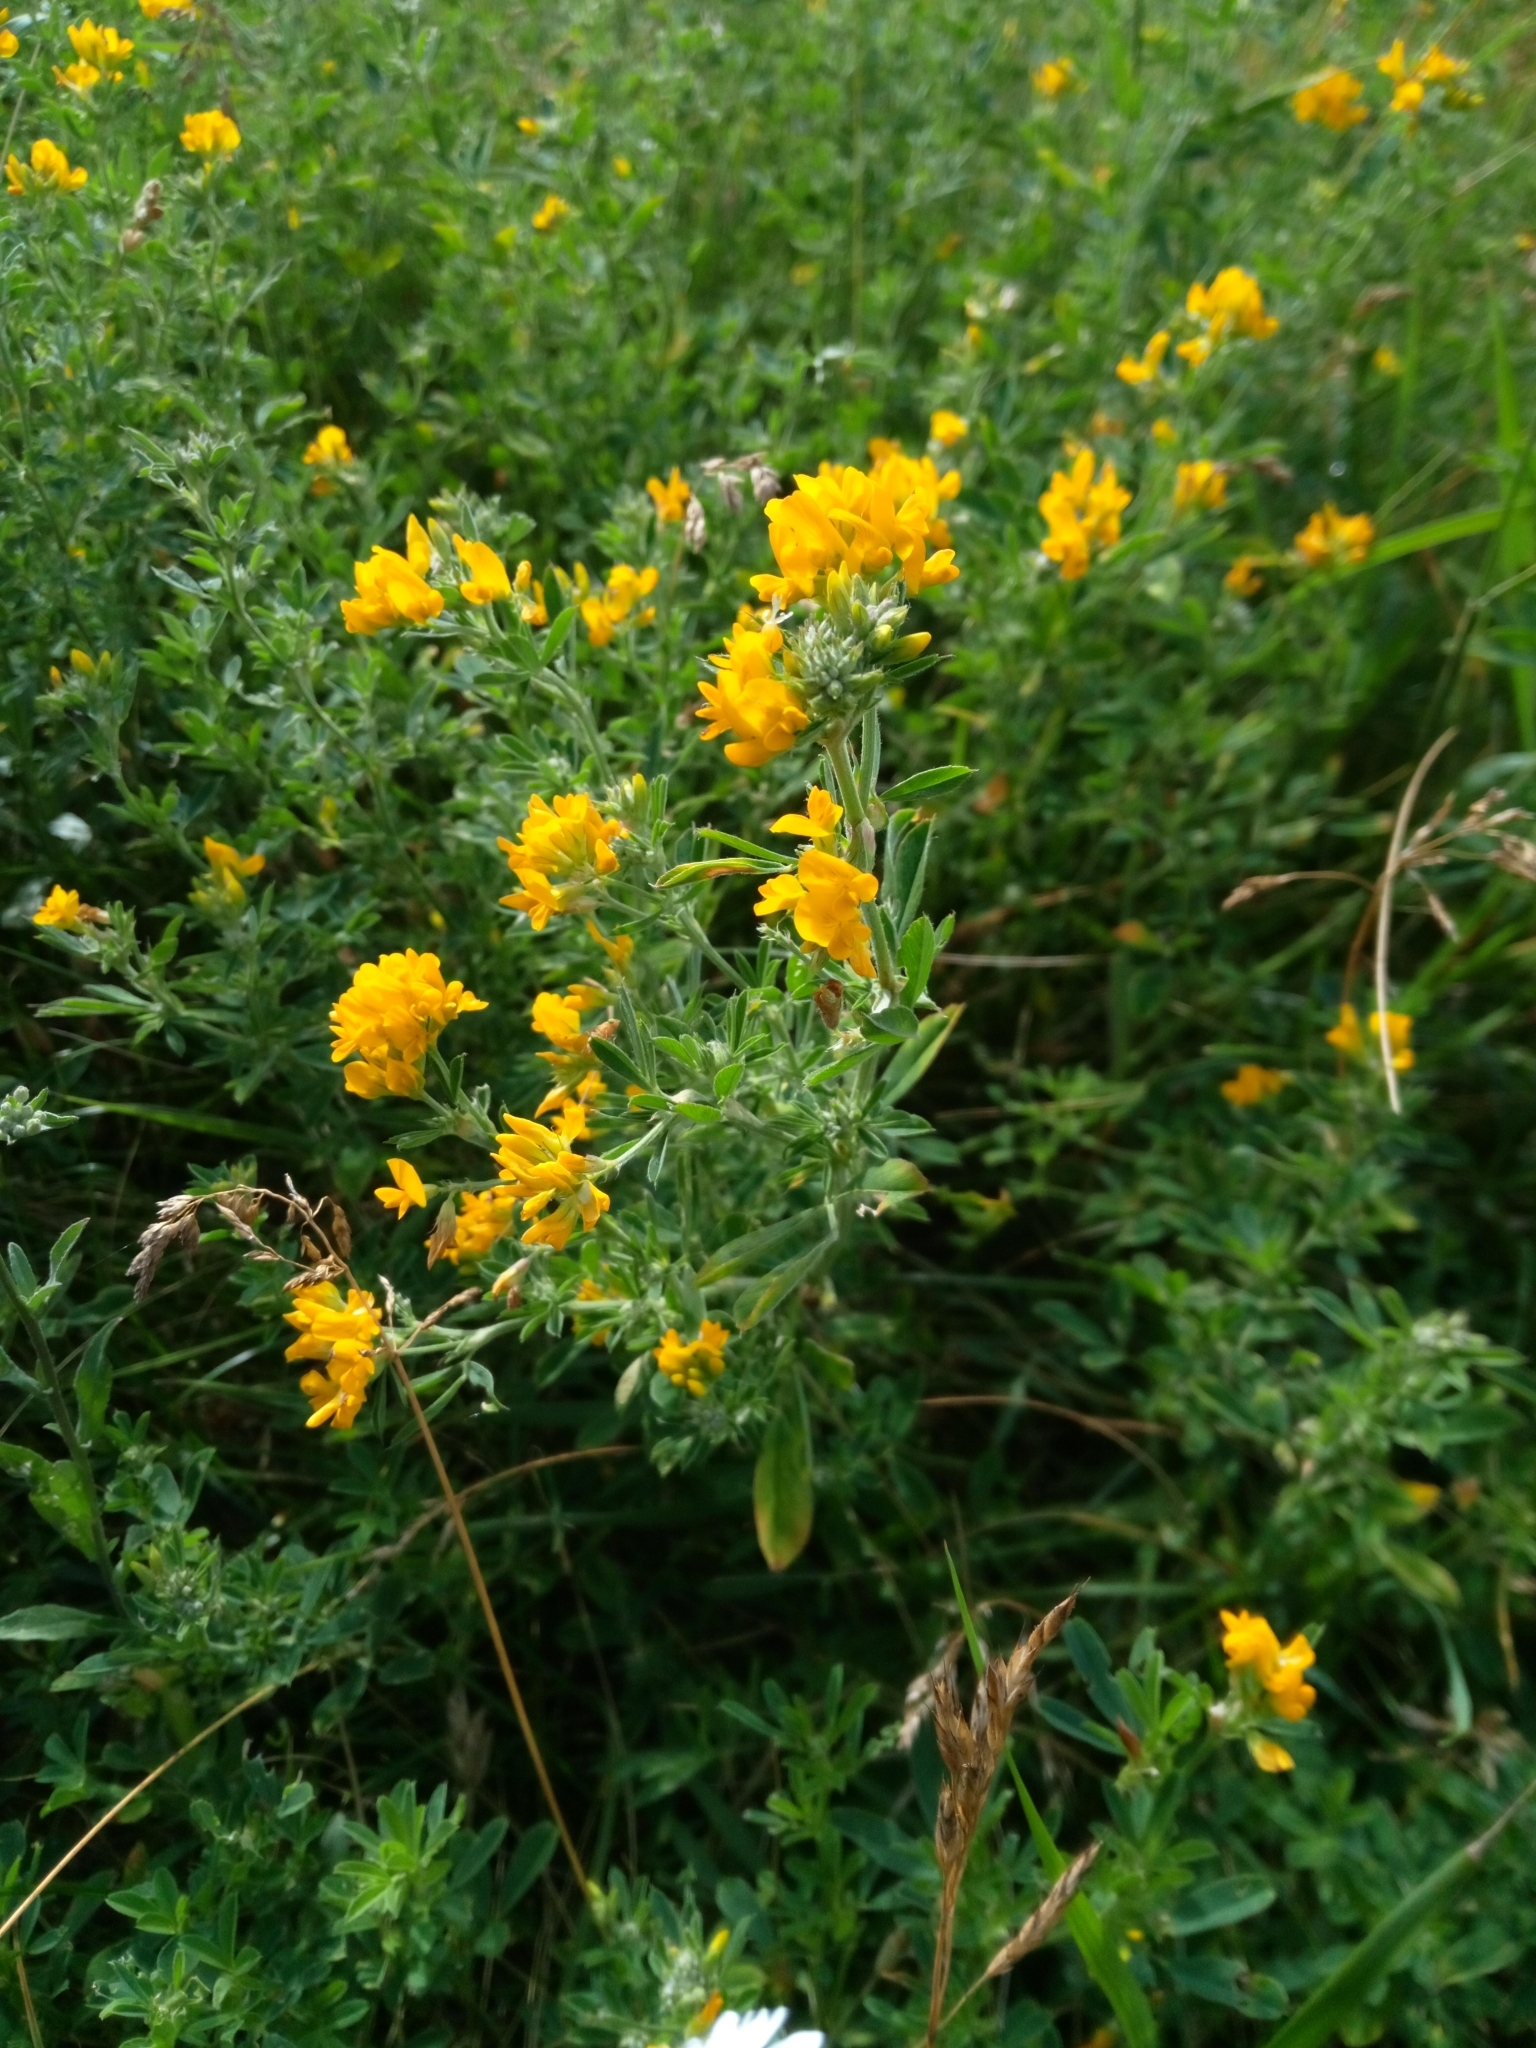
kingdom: Plantae
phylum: Tracheophyta
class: Magnoliopsida
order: Fabales
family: Fabaceae
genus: Medicago
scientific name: Medicago falcata
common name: Sickle medick
